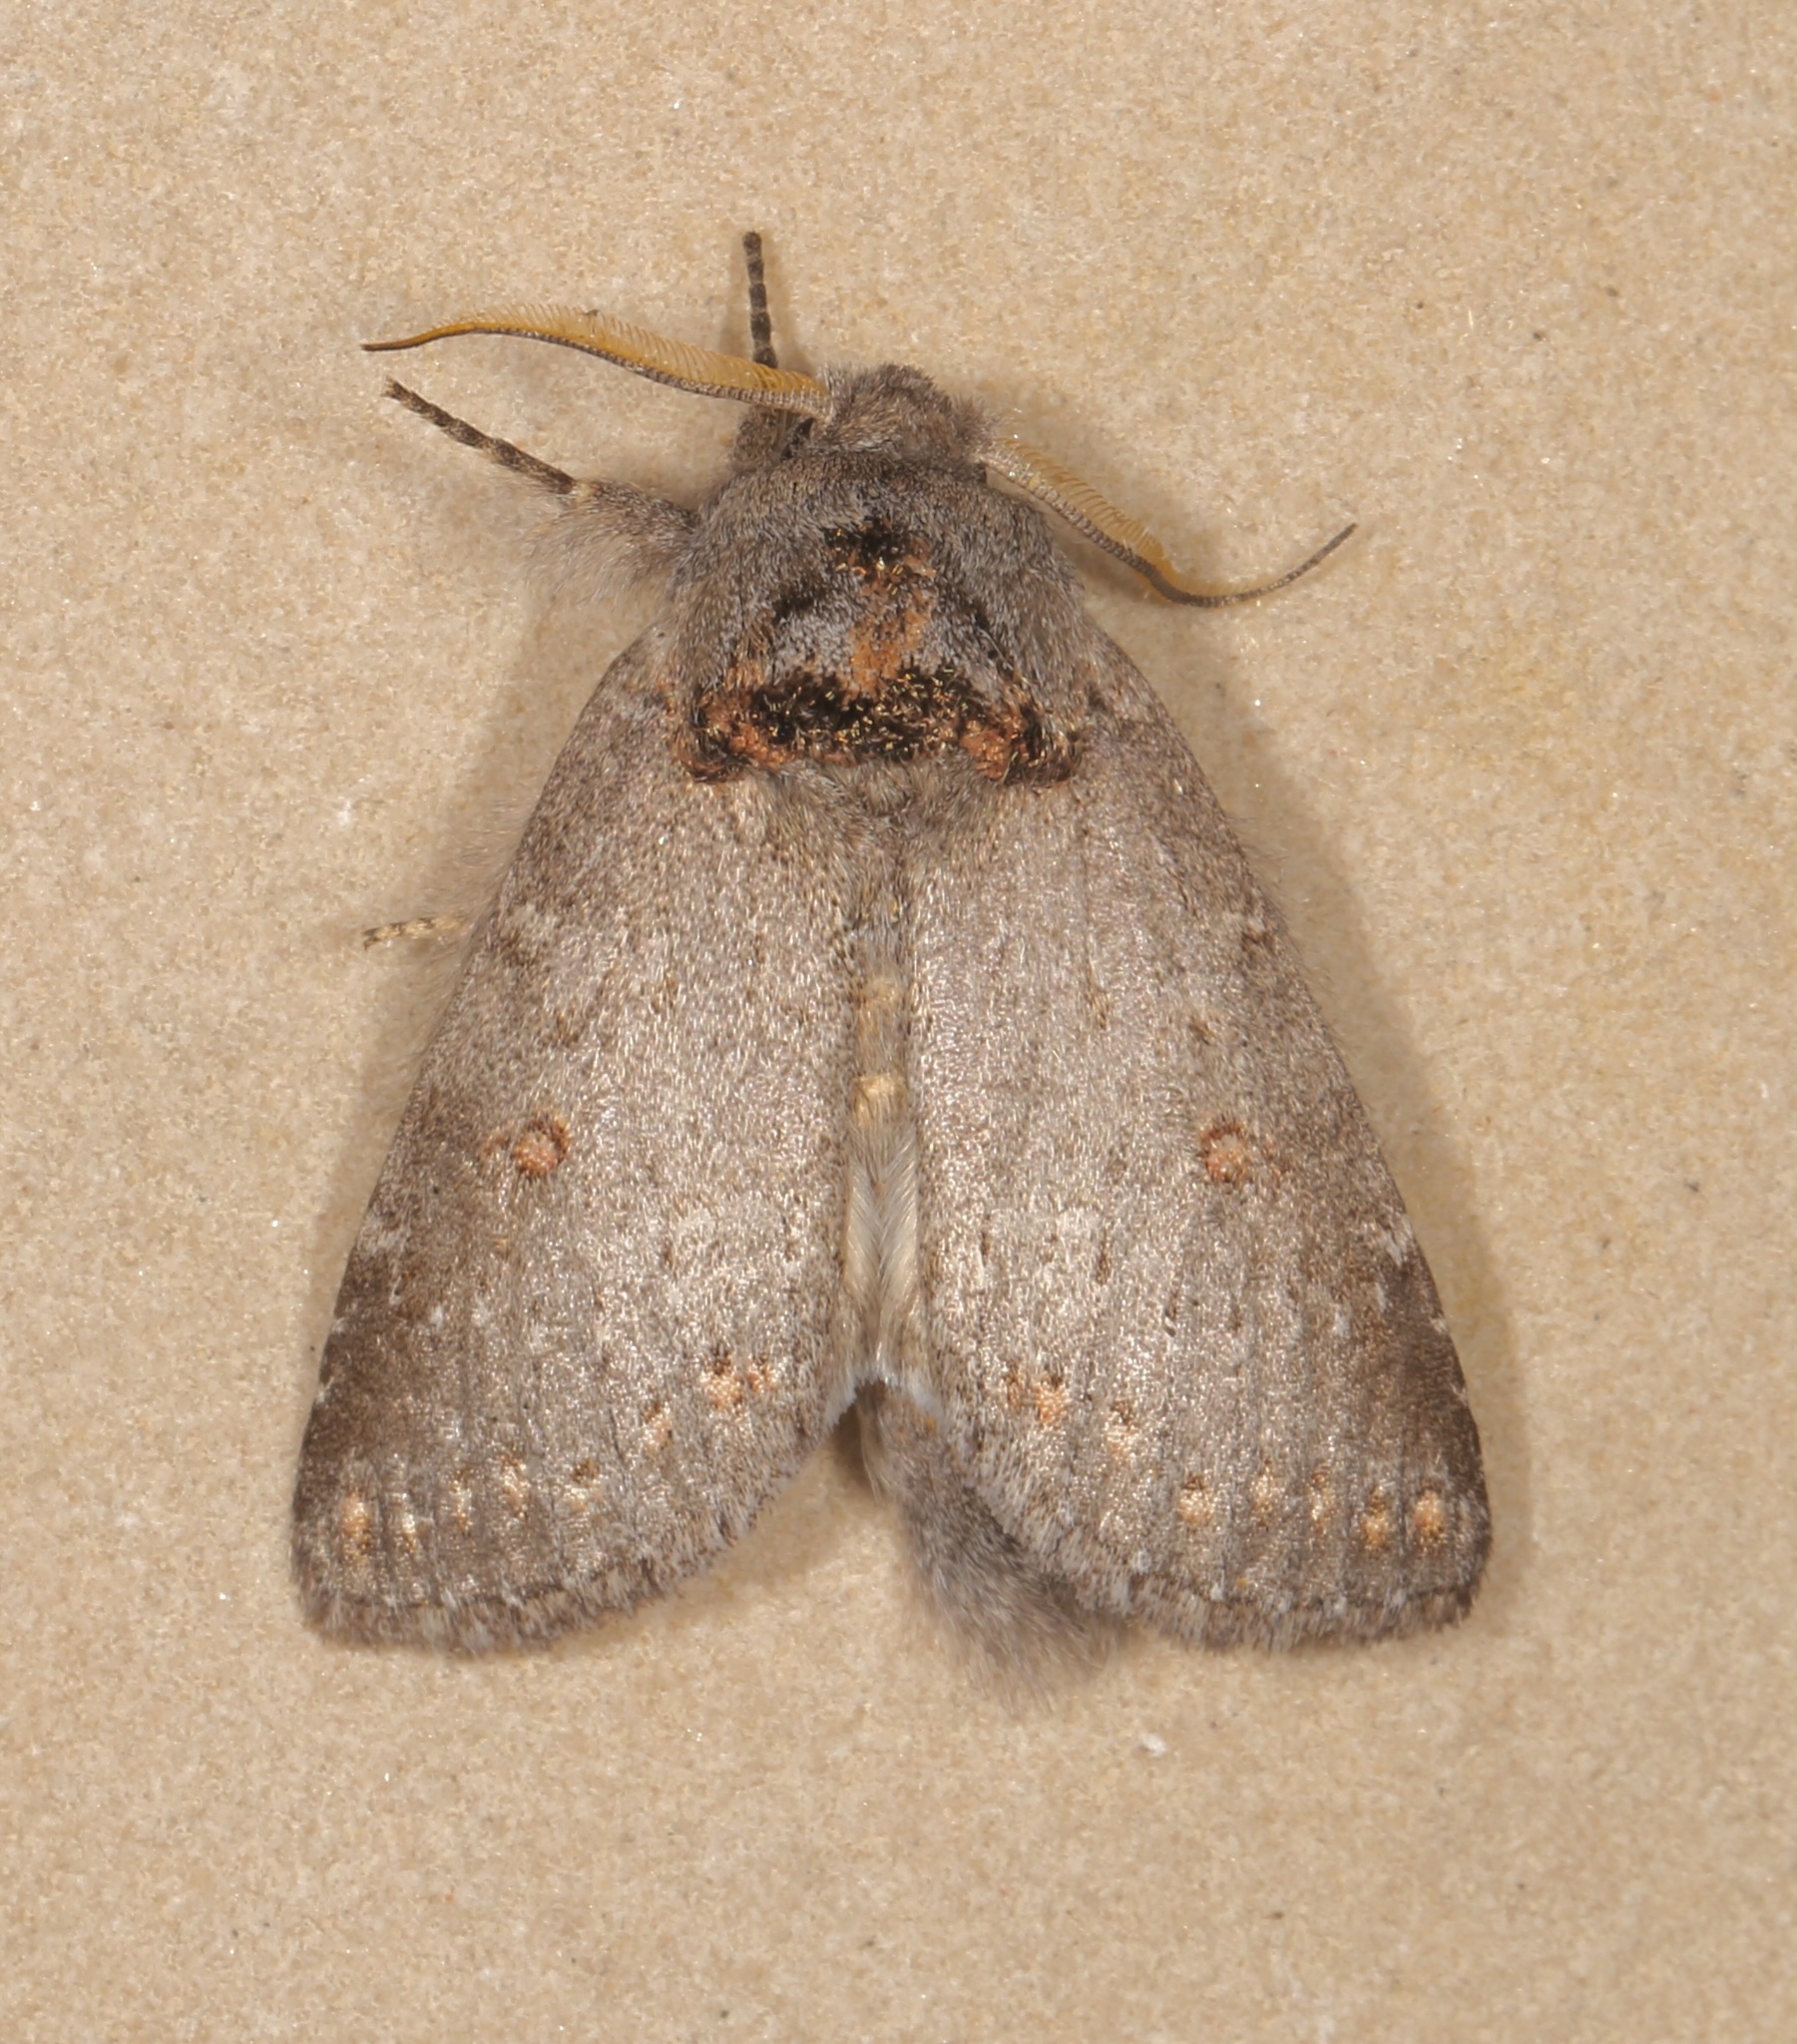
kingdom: Animalia
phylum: Arthropoda
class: Insecta
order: Lepidoptera
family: Notodontidae
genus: Theroa
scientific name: Theroa zethus
